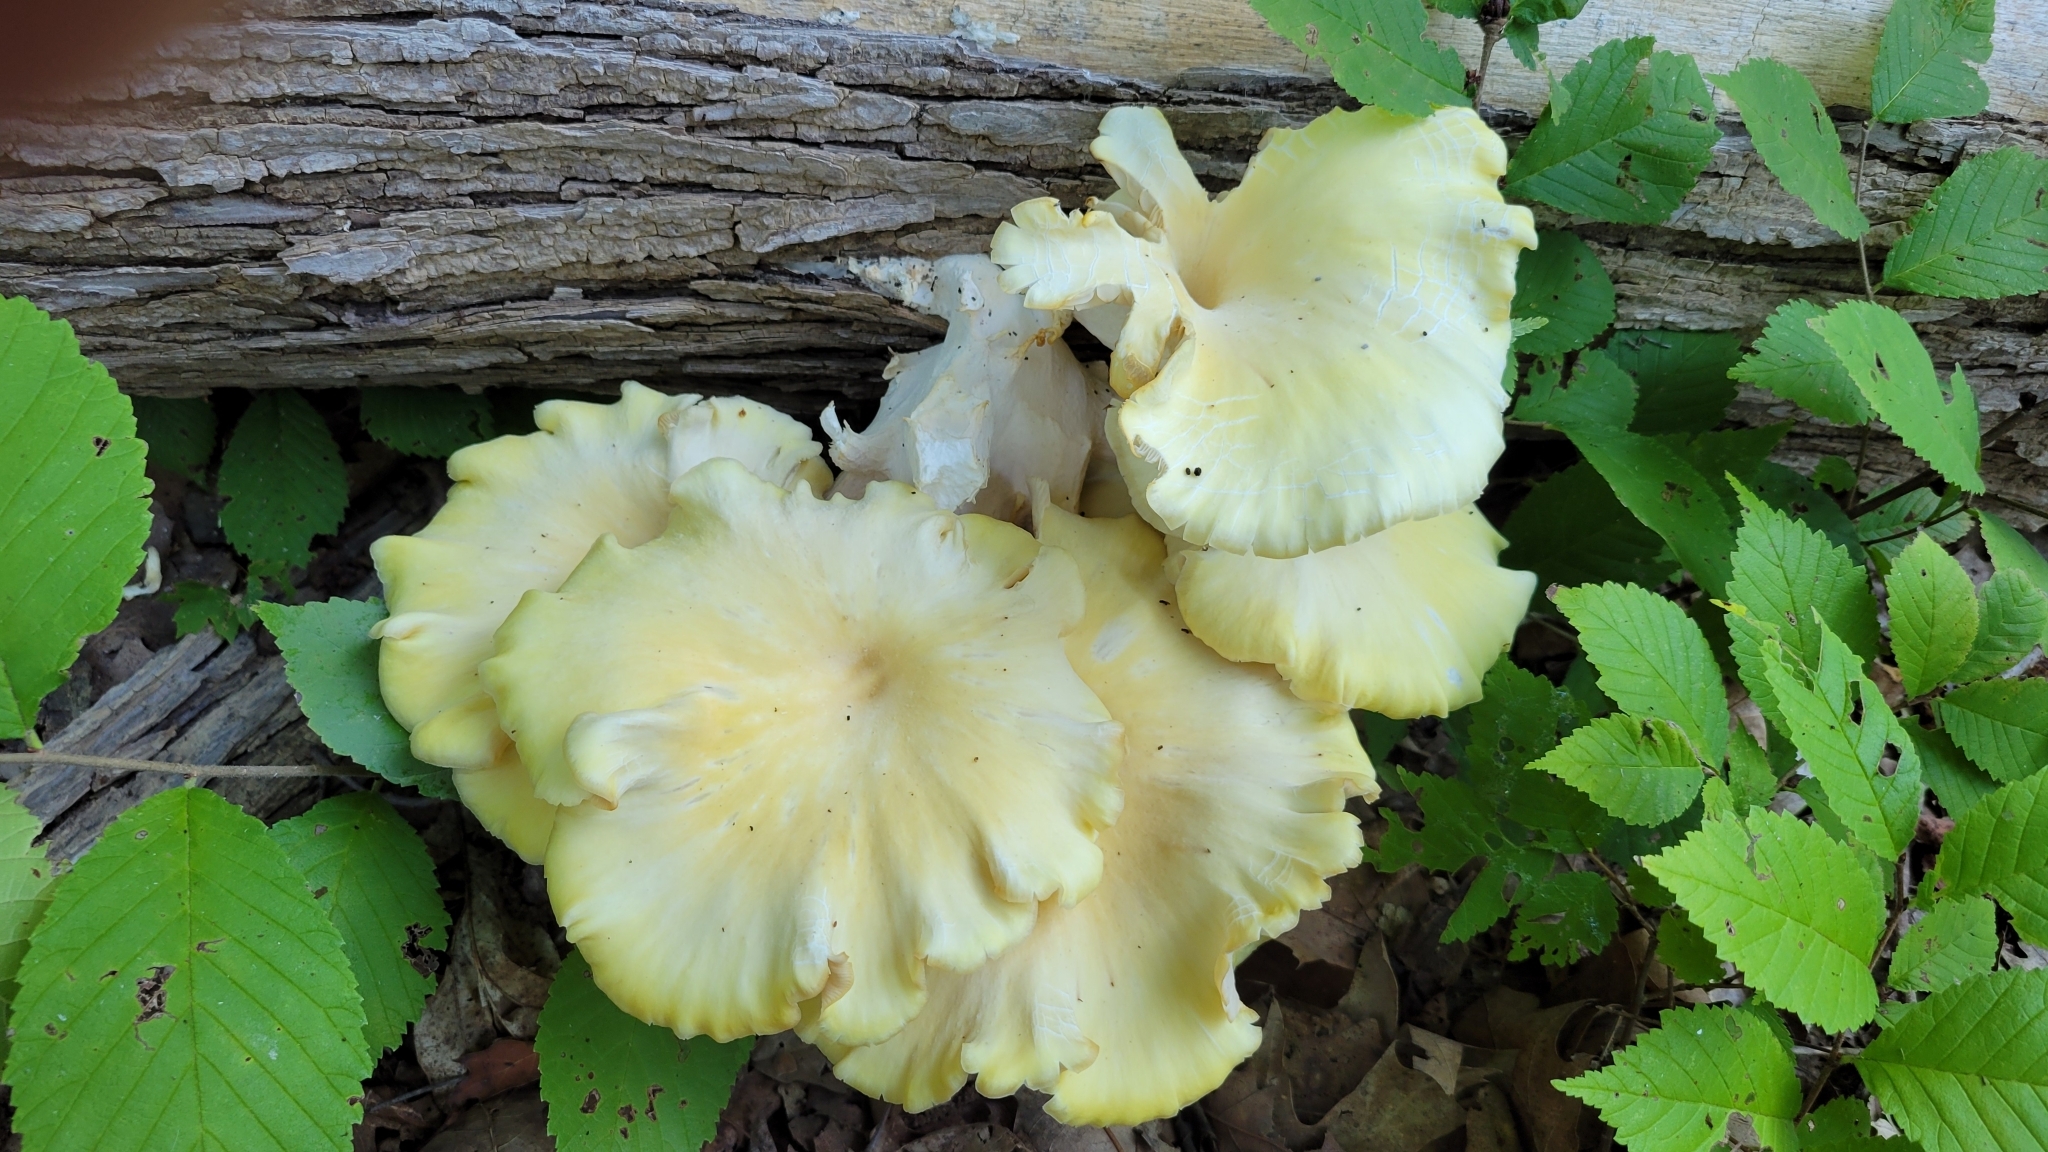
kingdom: Fungi
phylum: Basidiomycota
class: Agaricomycetes
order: Agaricales
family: Pleurotaceae
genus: Pleurotus
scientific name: Pleurotus citrinopileatus
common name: Golden oyster mushroom
